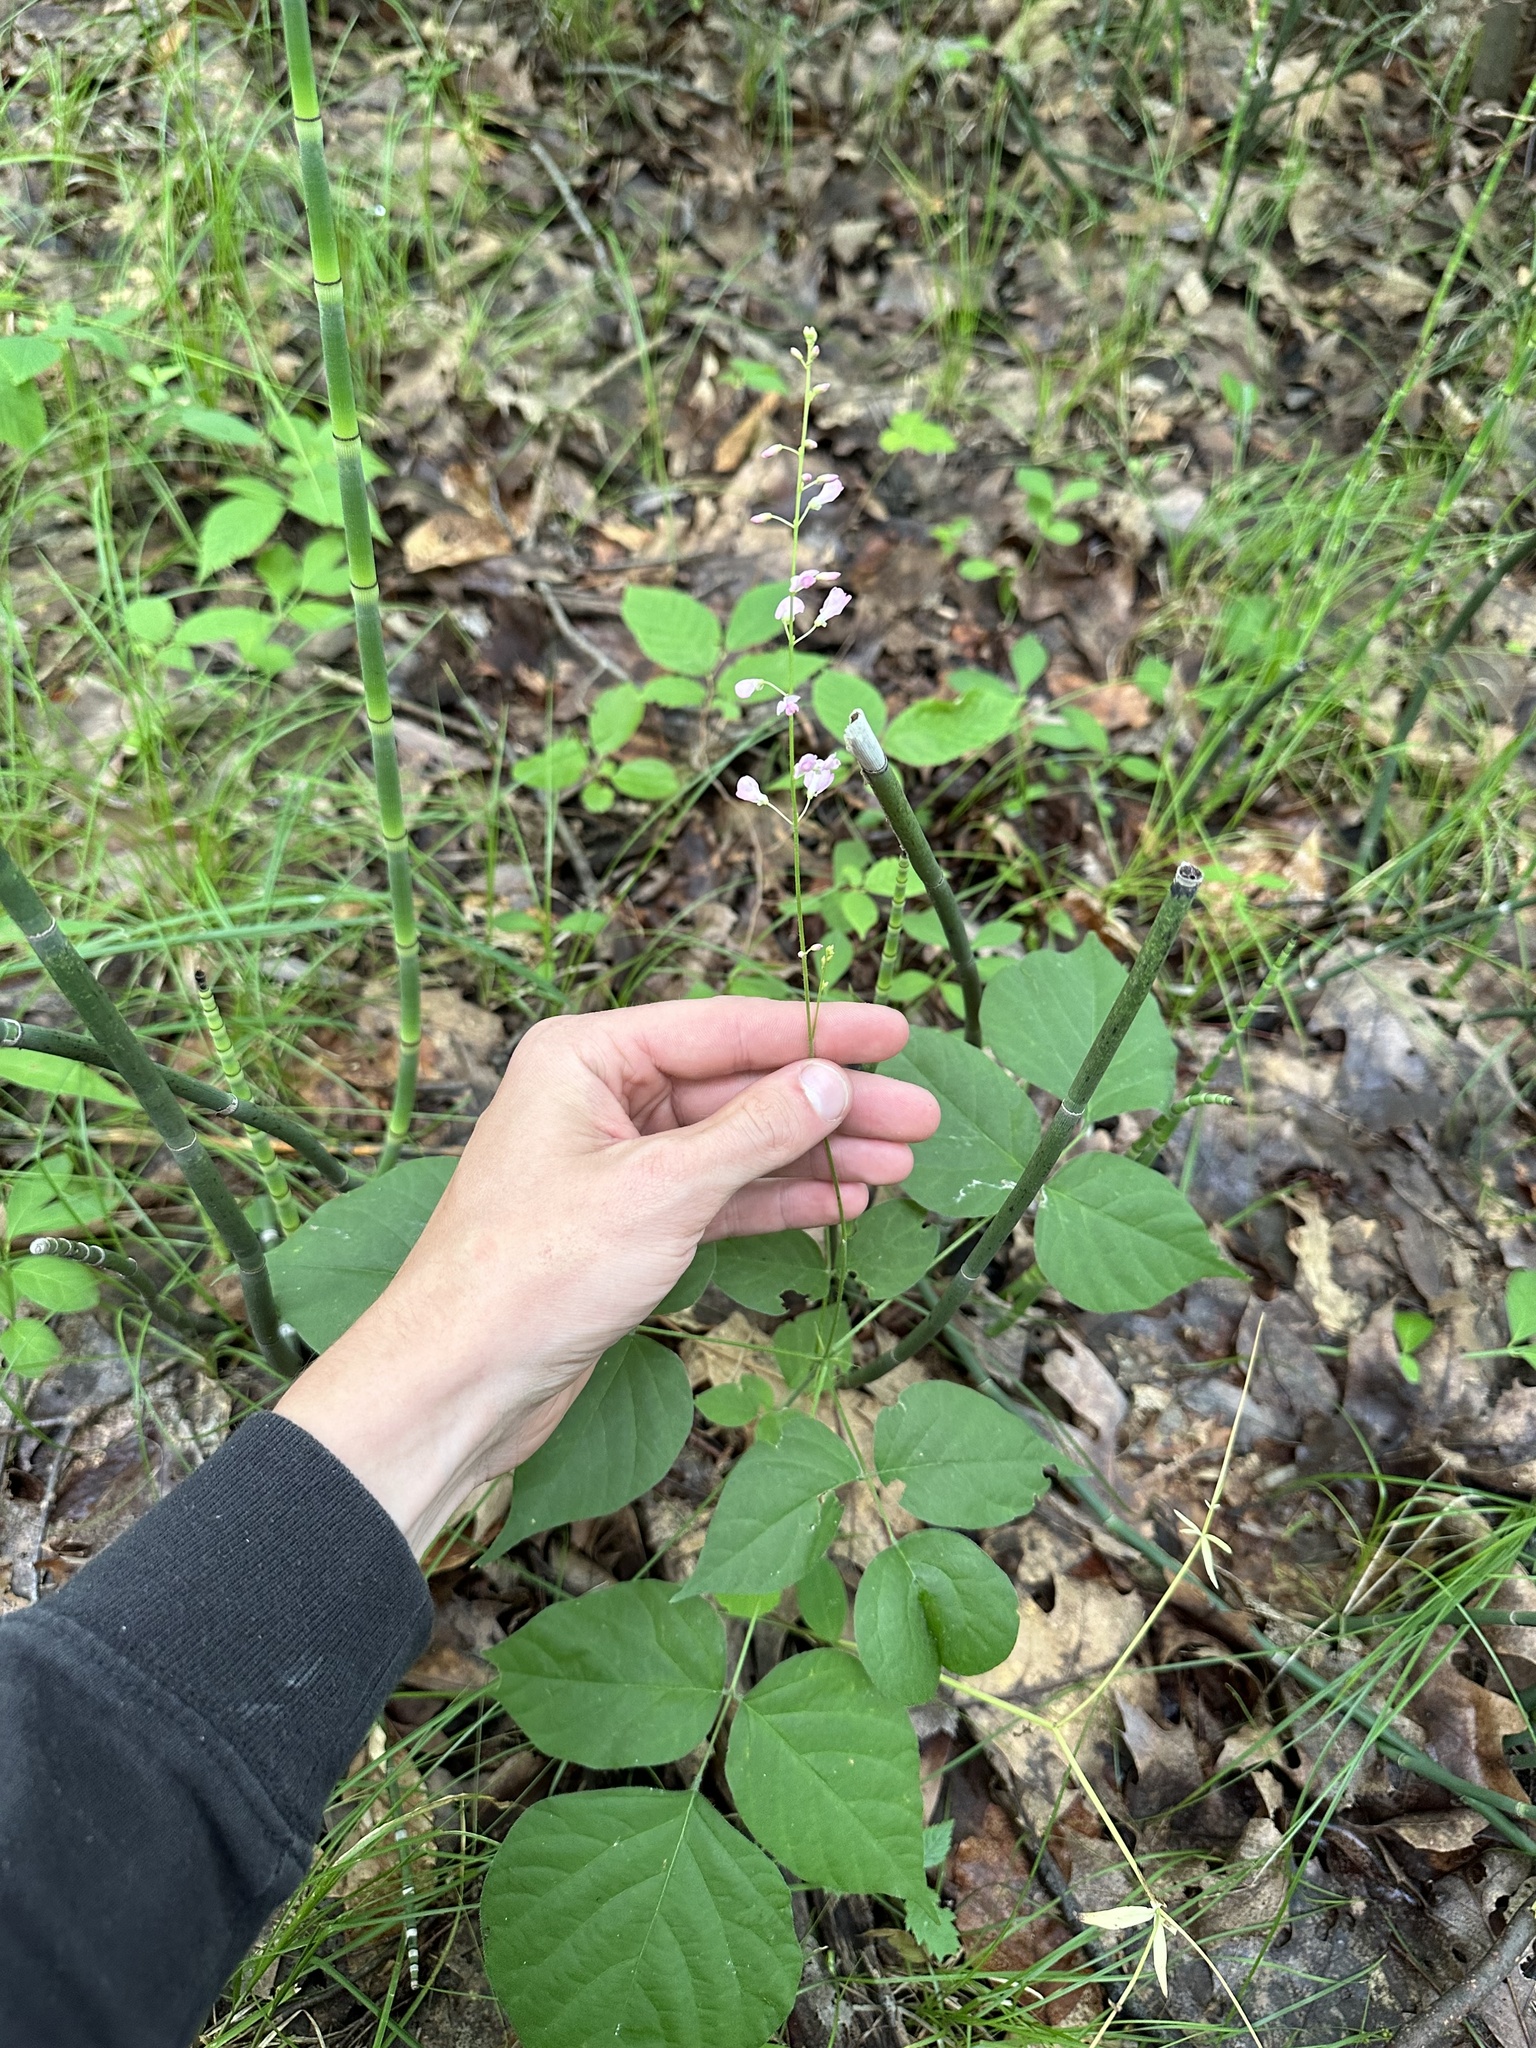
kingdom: Plantae
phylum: Tracheophyta
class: Magnoliopsida
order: Fabales
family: Fabaceae
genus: Hylodesmum
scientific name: Hylodesmum glutinosum
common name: Clustered-leaved tick-trefoil
